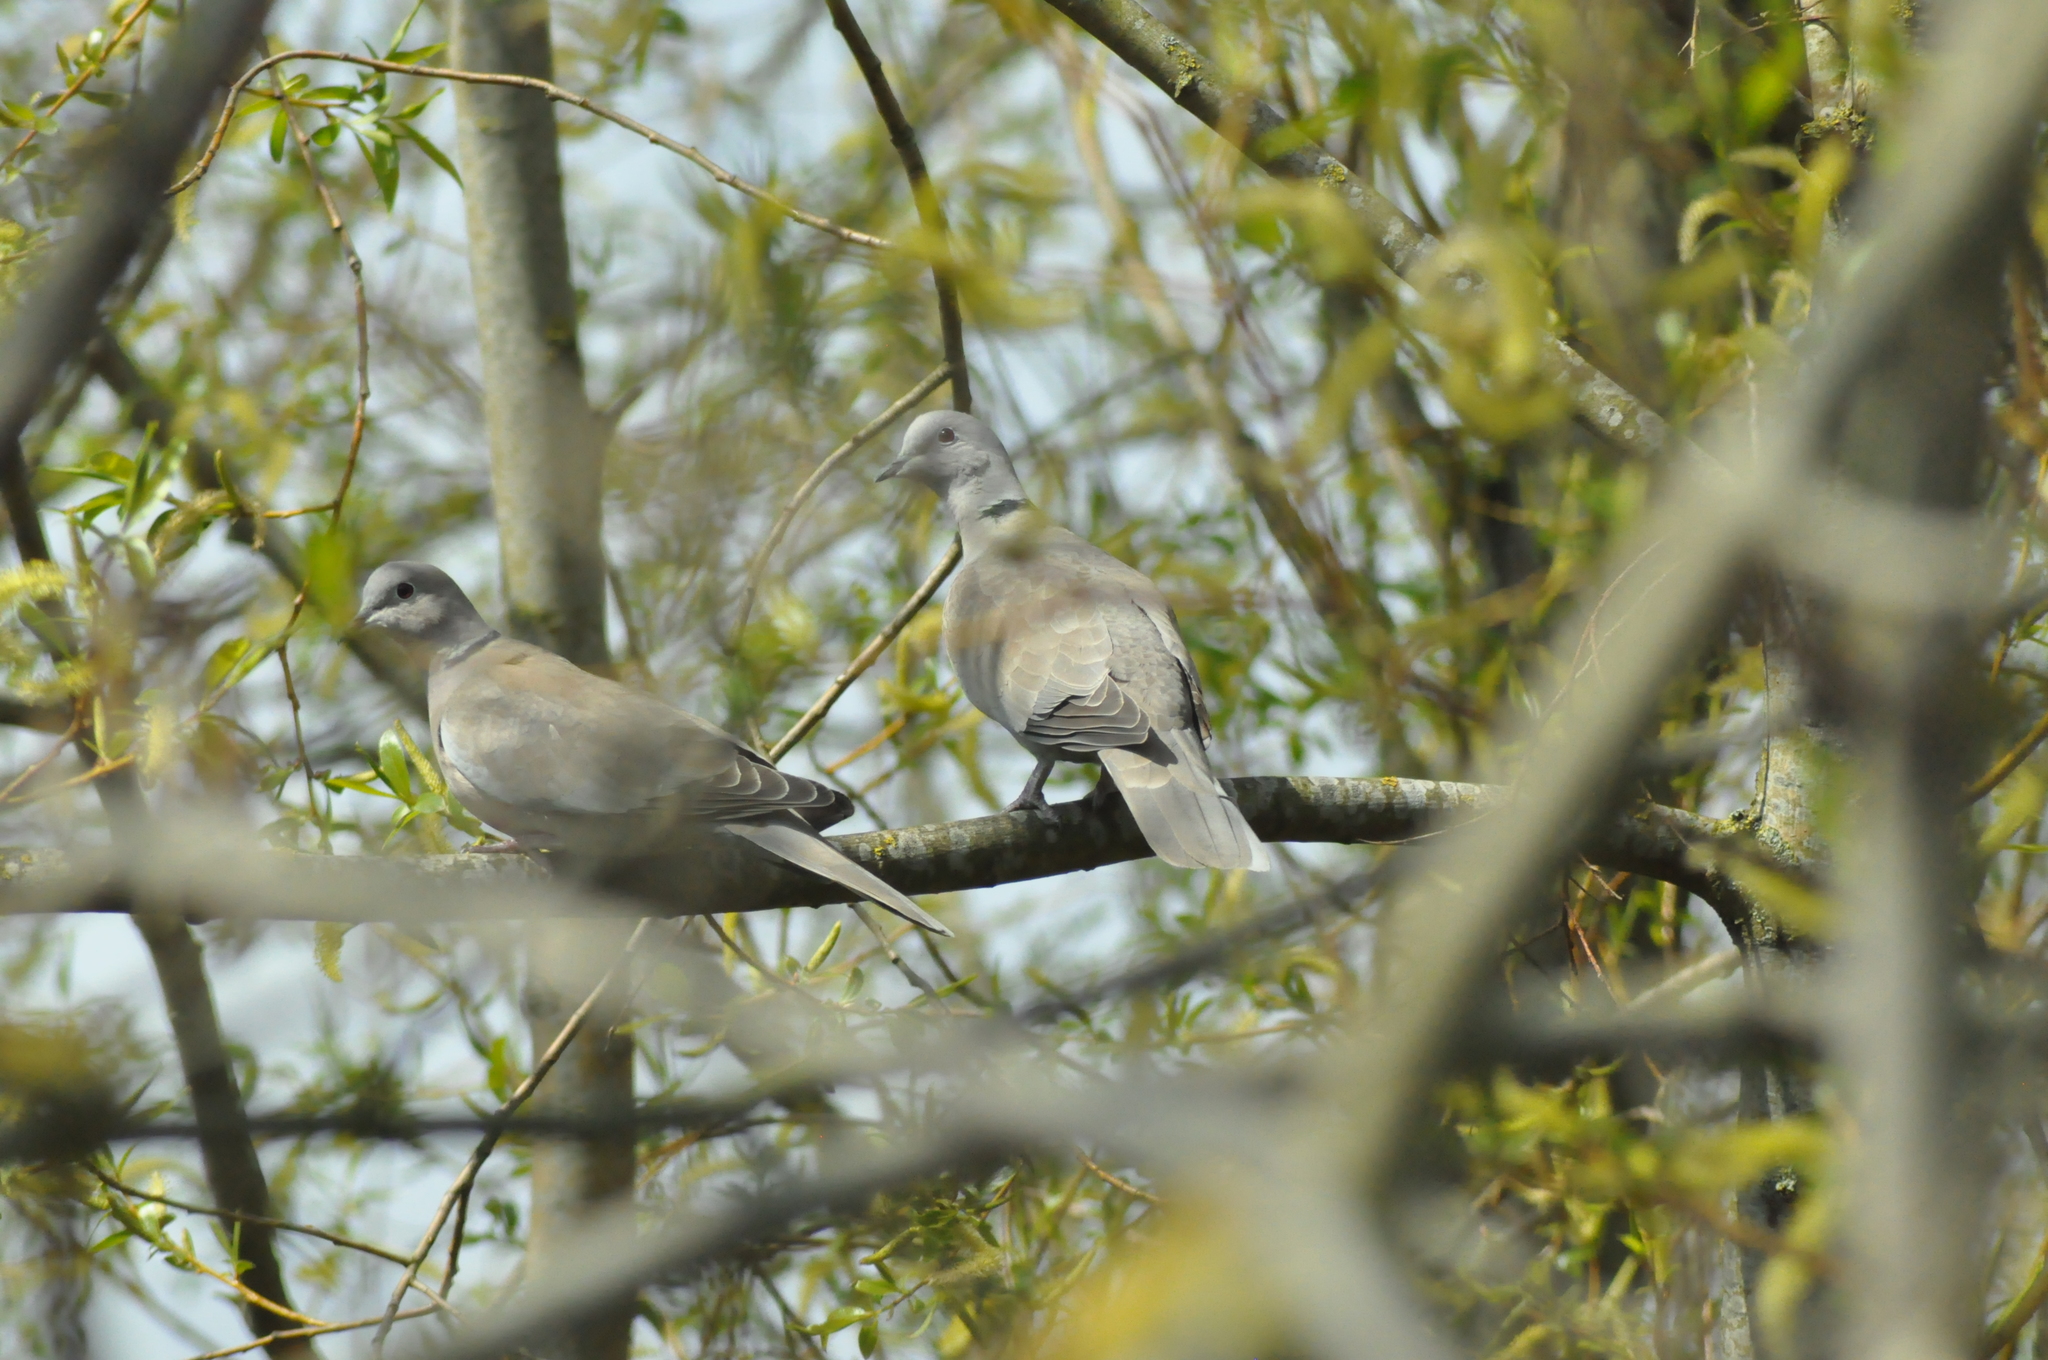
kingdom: Animalia
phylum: Chordata
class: Aves
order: Columbiformes
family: Columbidae
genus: Streptopelia
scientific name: Streptopelia decaocto
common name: Eurasian collared dove
